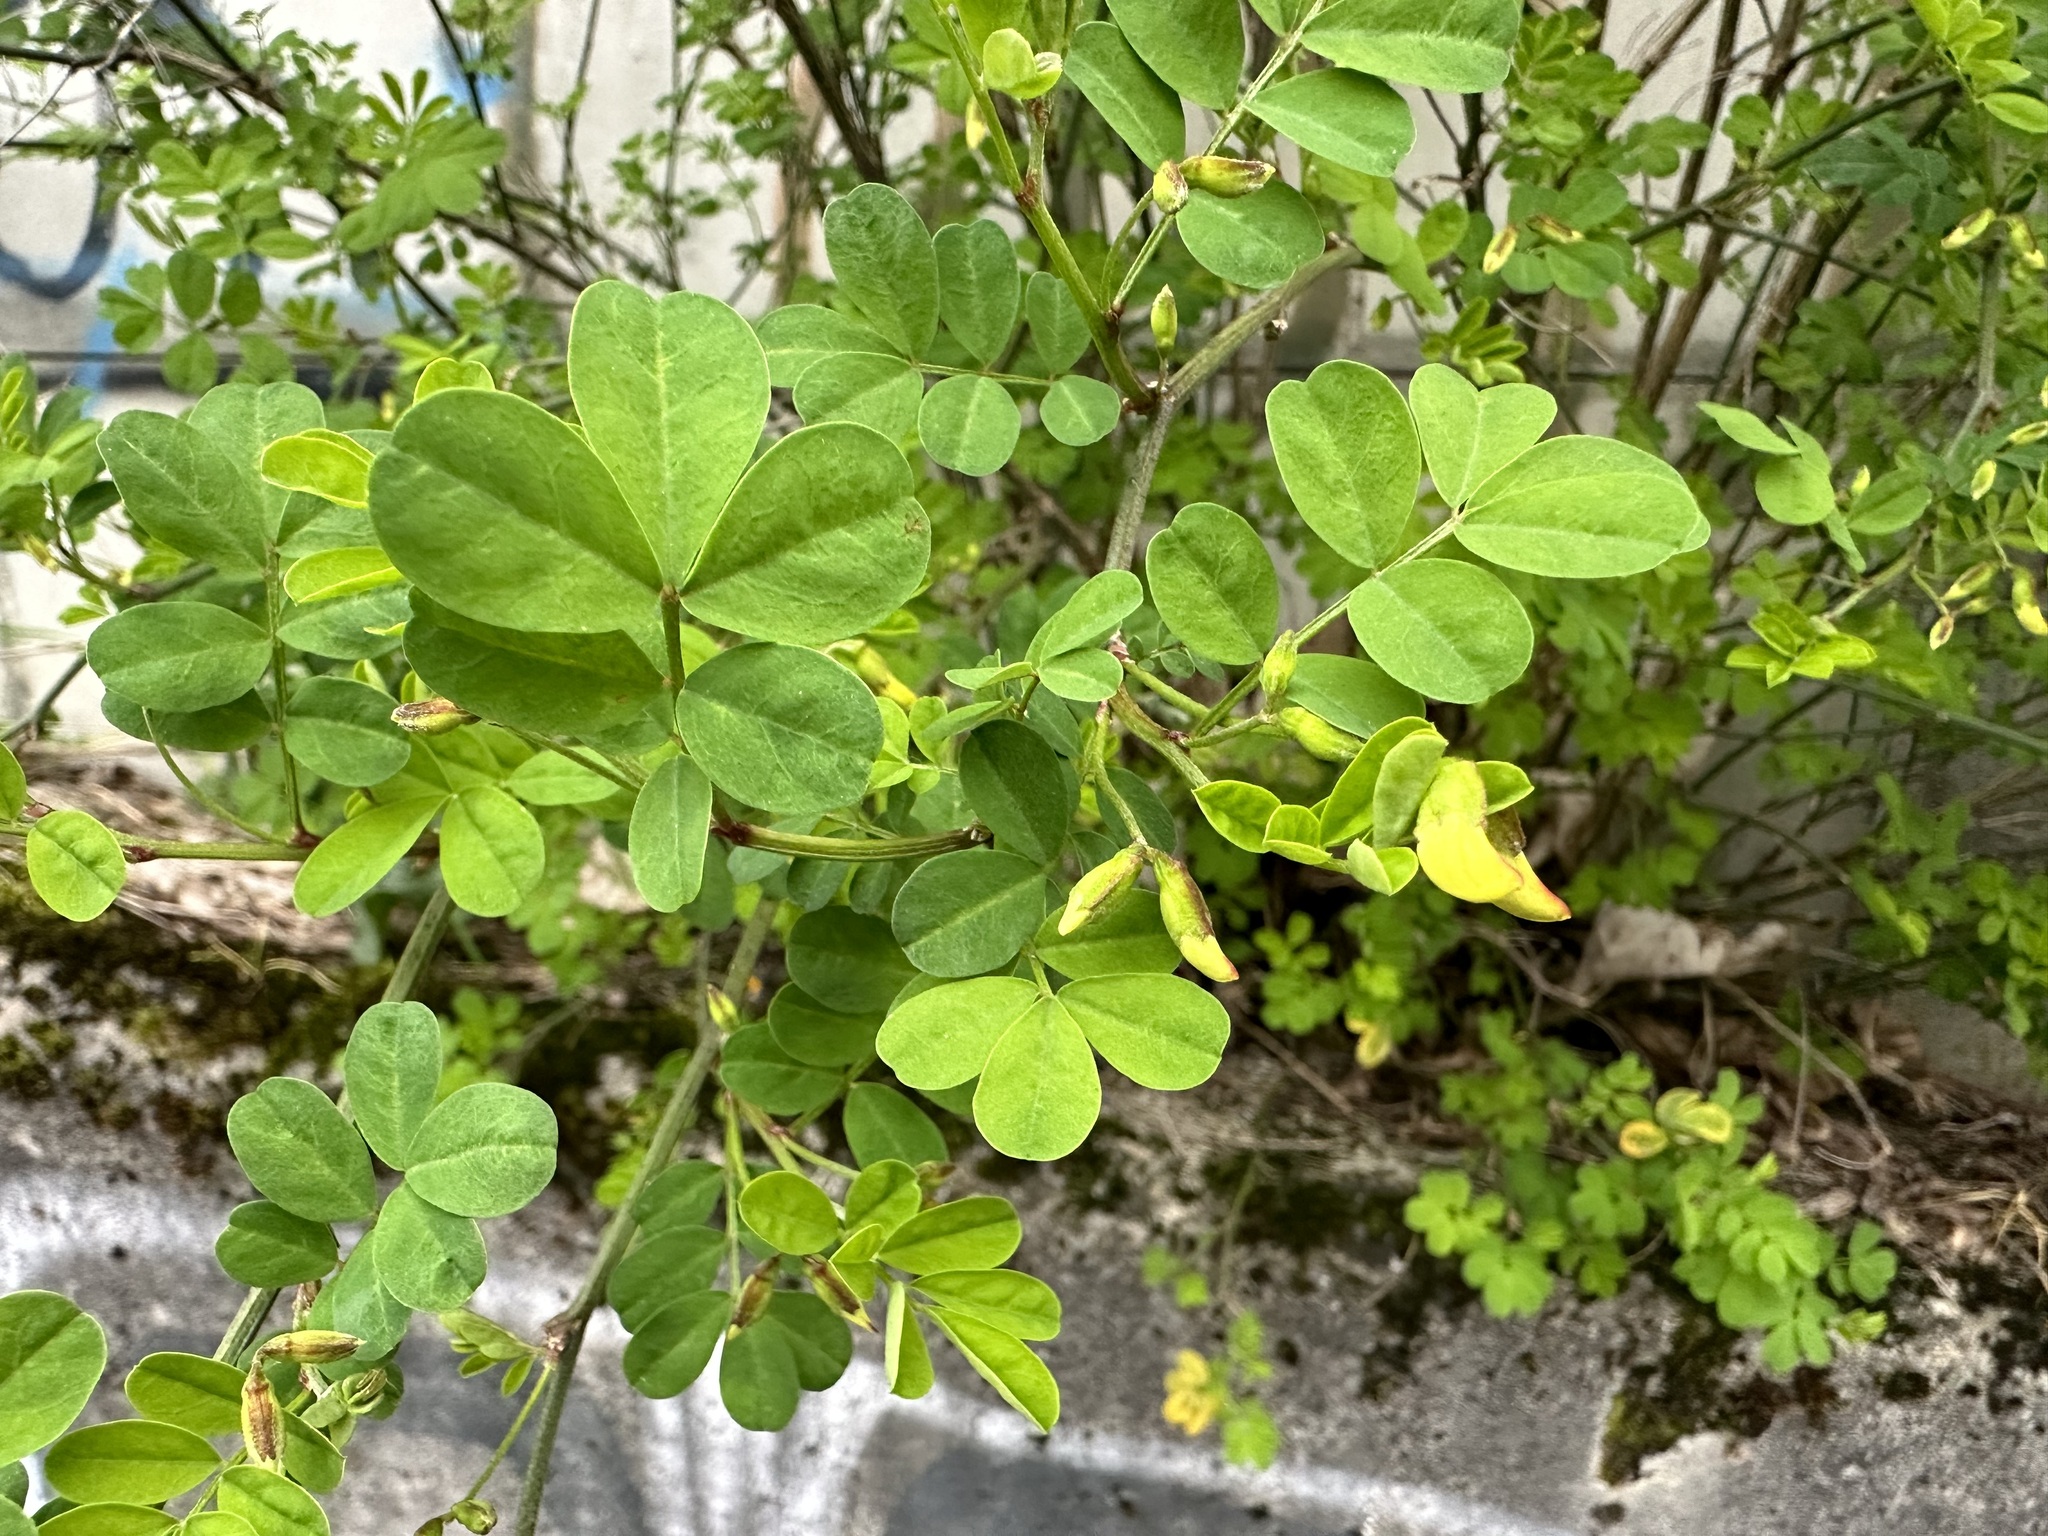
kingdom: Plantae
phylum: Tracheophyta
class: Magnoliopsida
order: Fabales
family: Fabaceae
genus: Hippocrepis
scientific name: Hippocrepis emerus
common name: Scorpion senna
